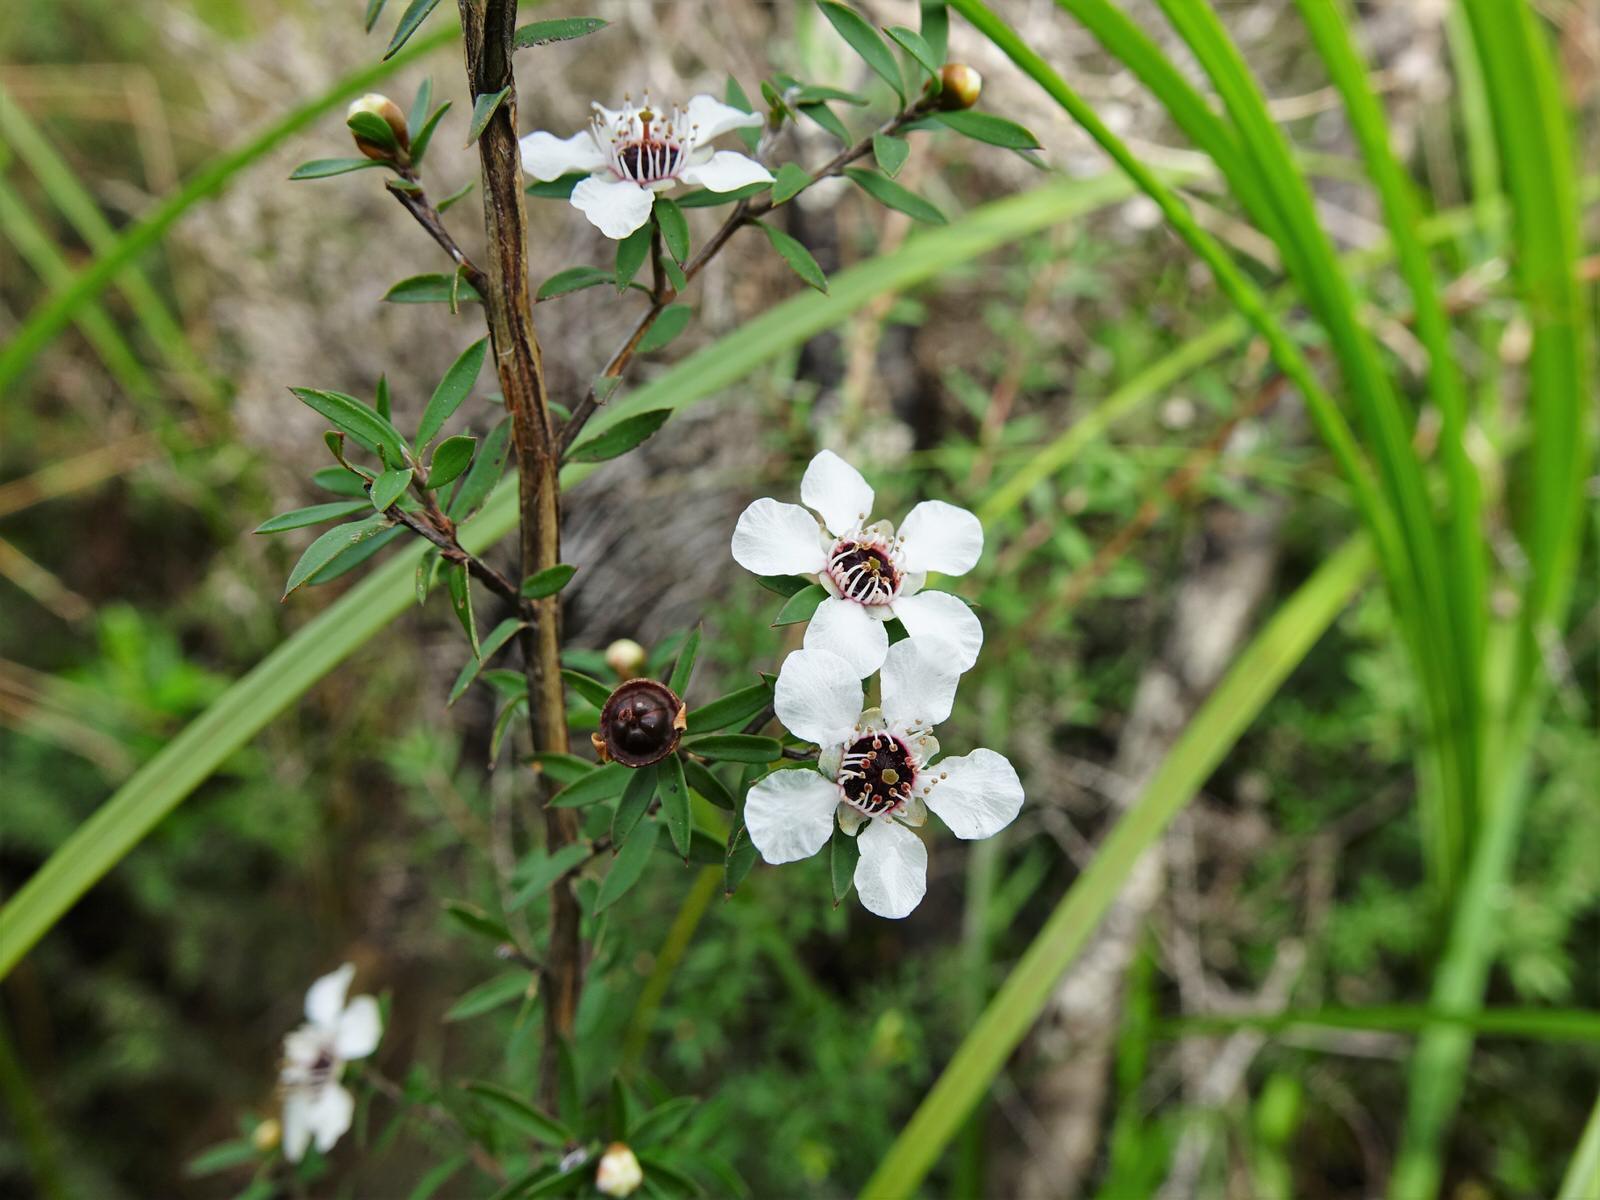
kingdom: Plantae
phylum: Tracheophyta
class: Magnoliopsida
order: Myrtales
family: Myrtaceae
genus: Leptospermum
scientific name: Leptospermum scoparium
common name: Broom tea-tree
